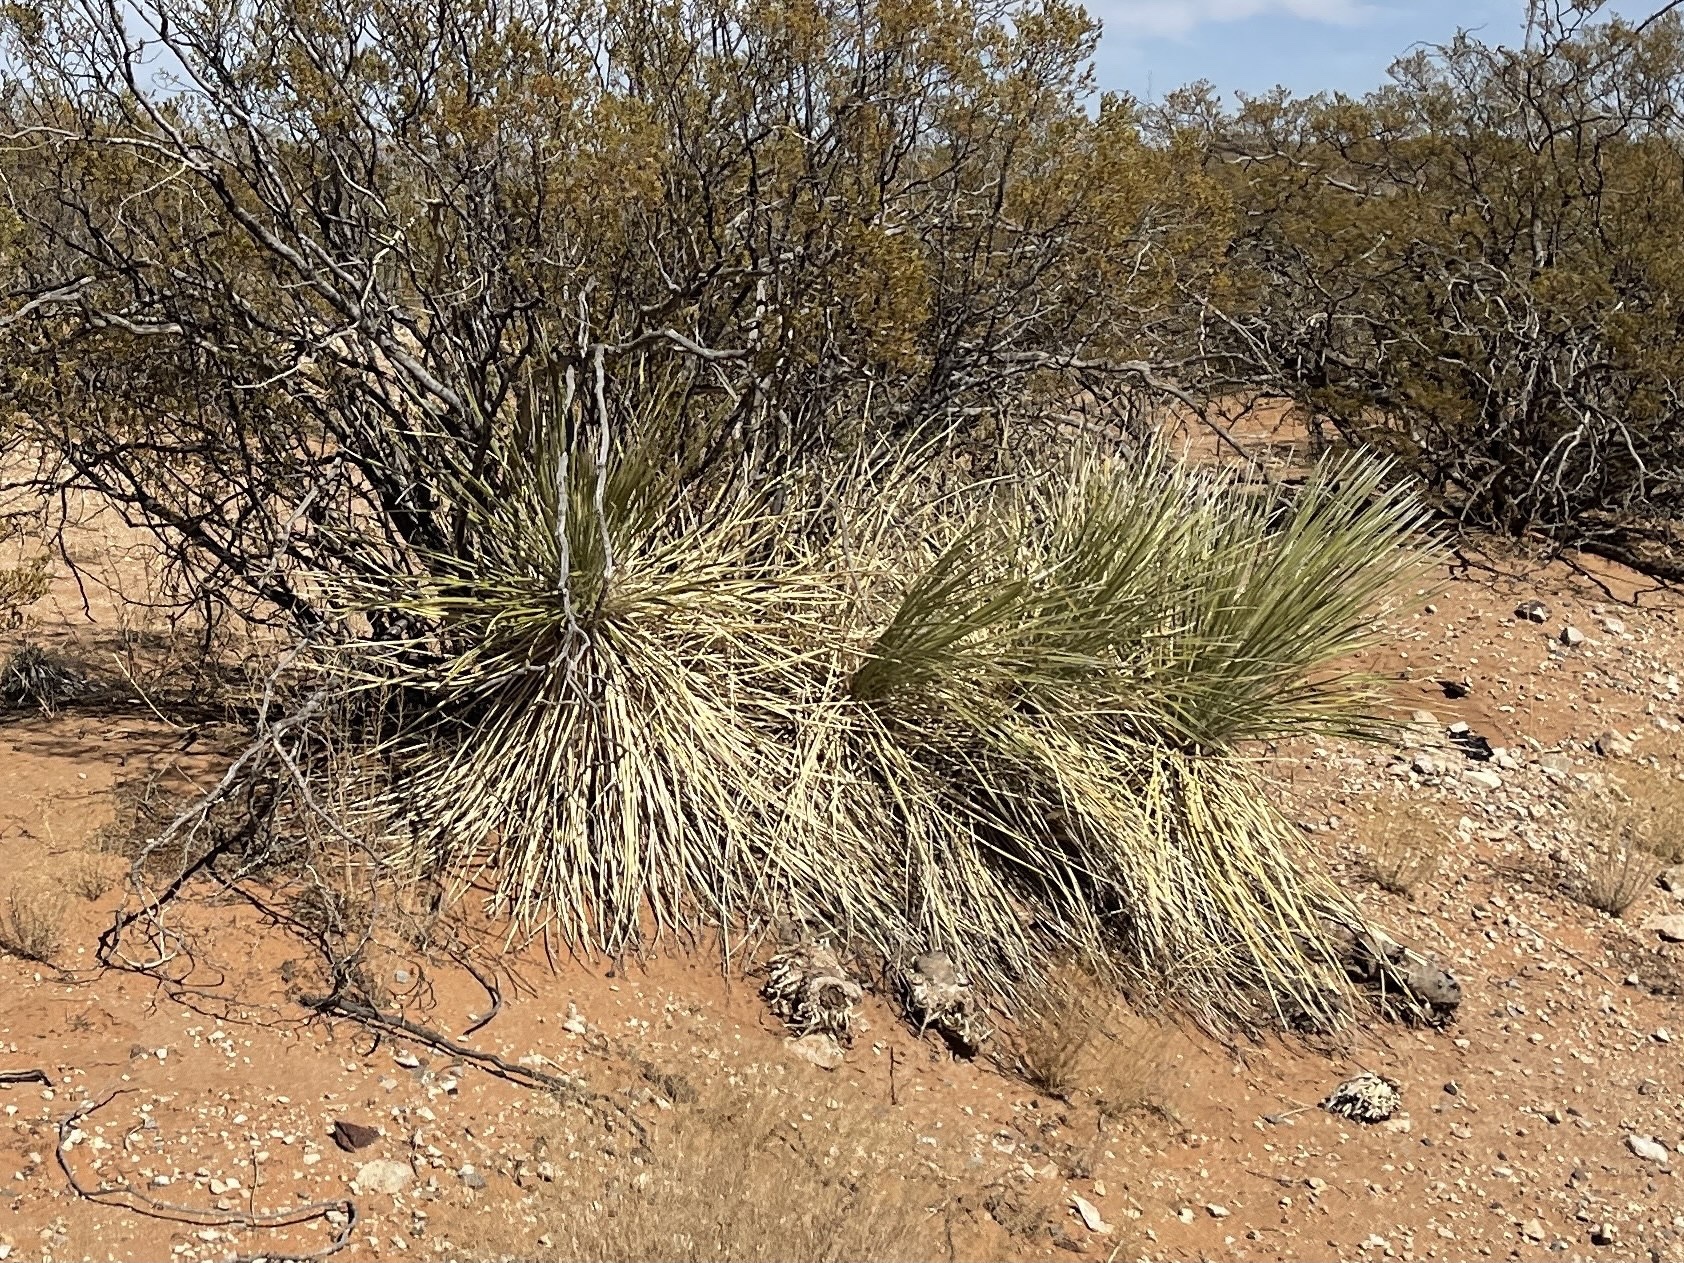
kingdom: Plantae
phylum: Tracheophyta
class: Liliopsida
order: Asparagales
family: Asparagaceae
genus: Yucca
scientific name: Yucca elata
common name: Palmella
